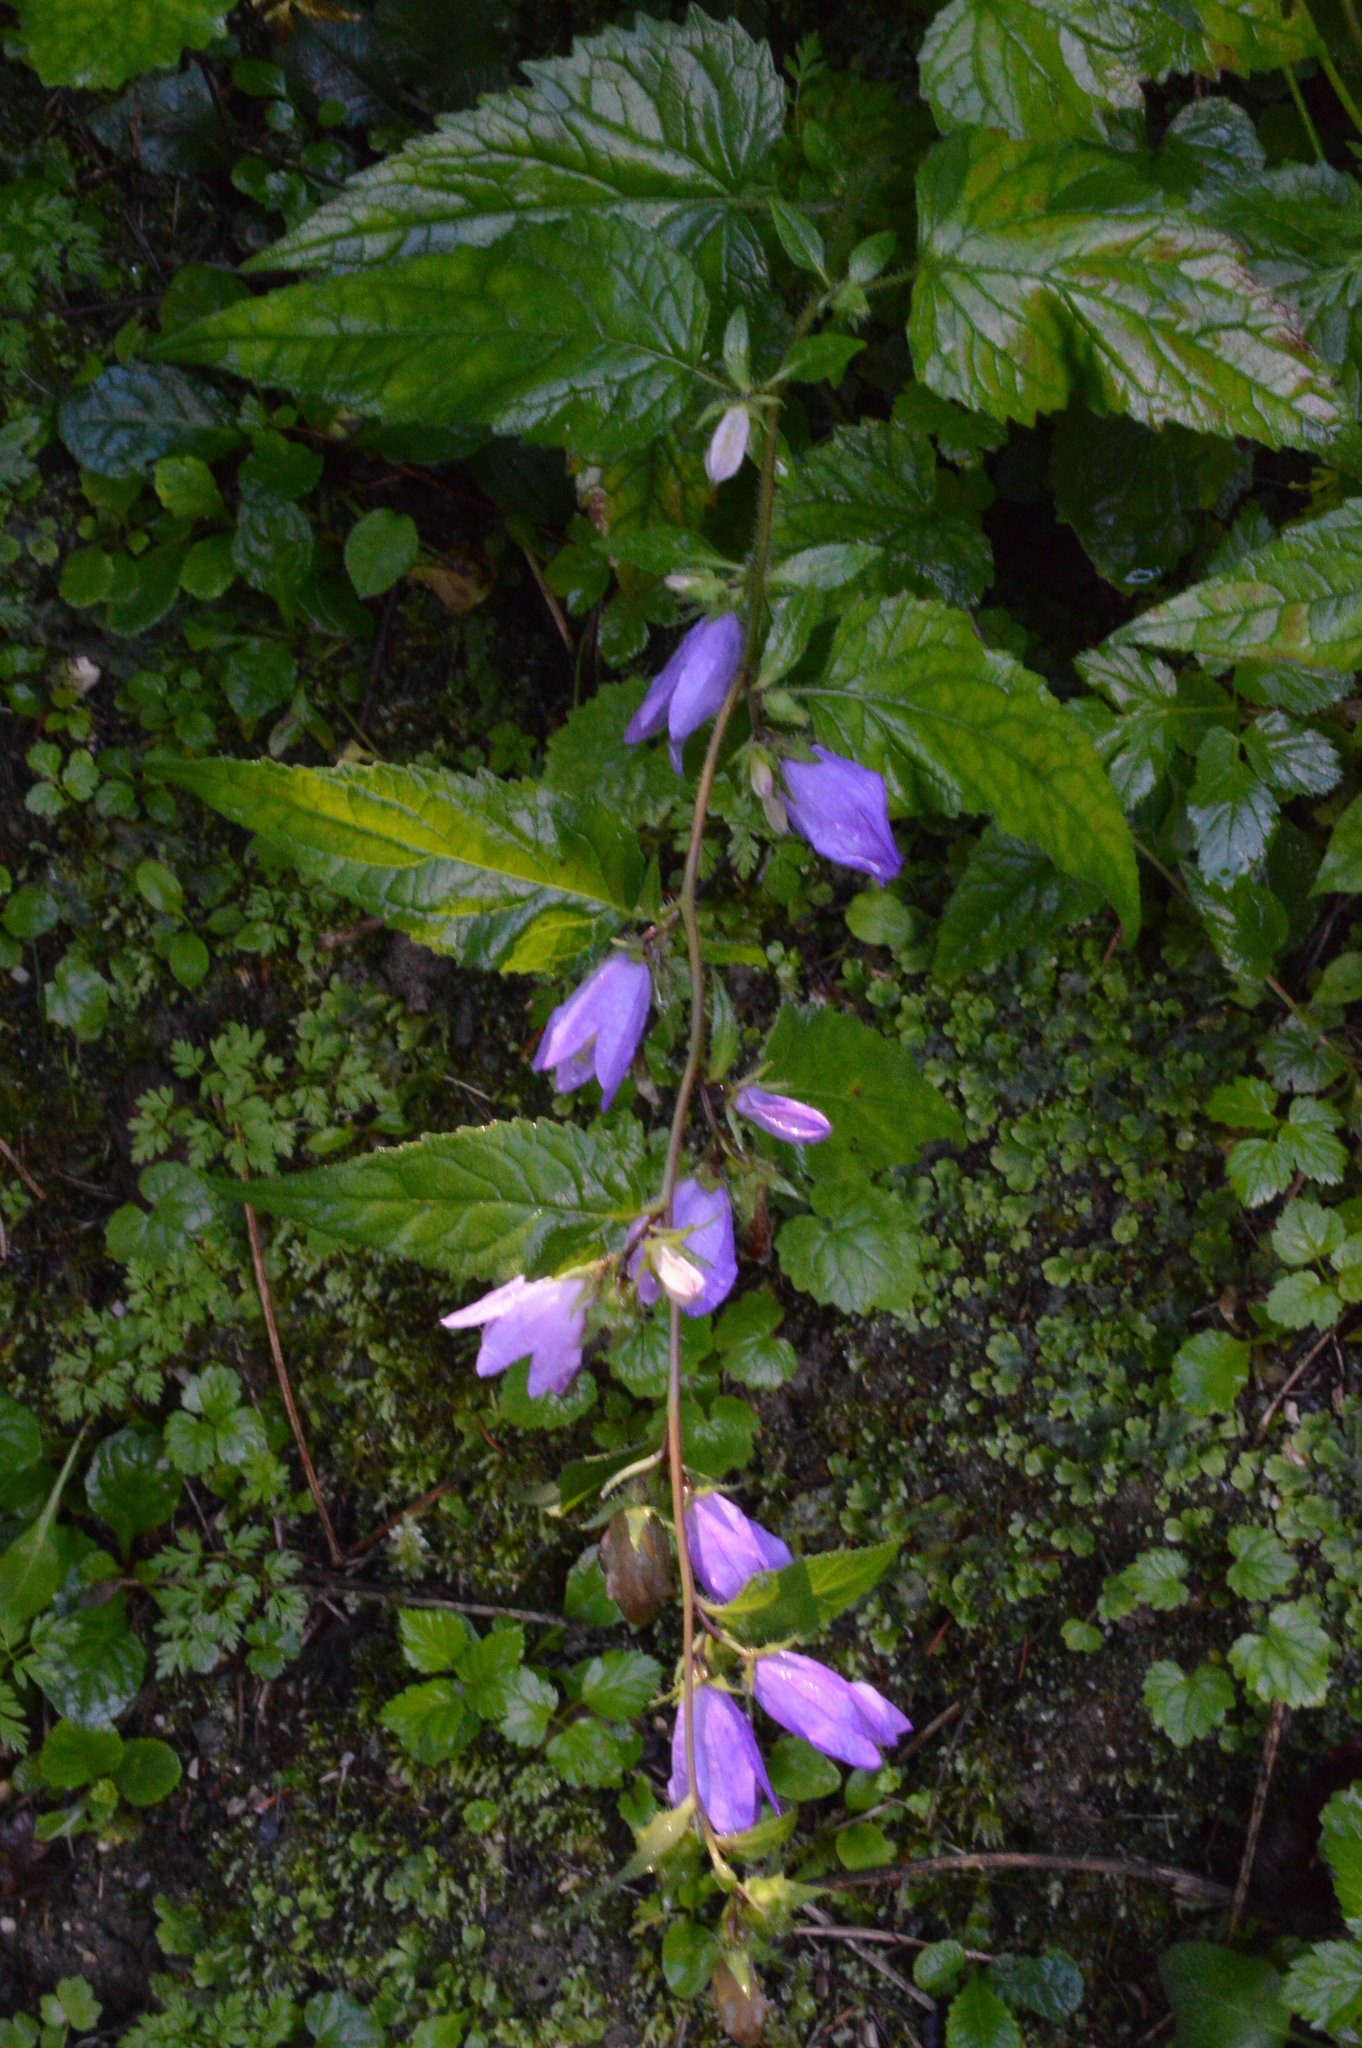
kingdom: Plantae
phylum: Tracheophyta
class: Magnoliopsida
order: Asterales
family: Campanulaceae
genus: Campanula
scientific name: Campanula trachelium
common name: Nettle-leaved bellflower
